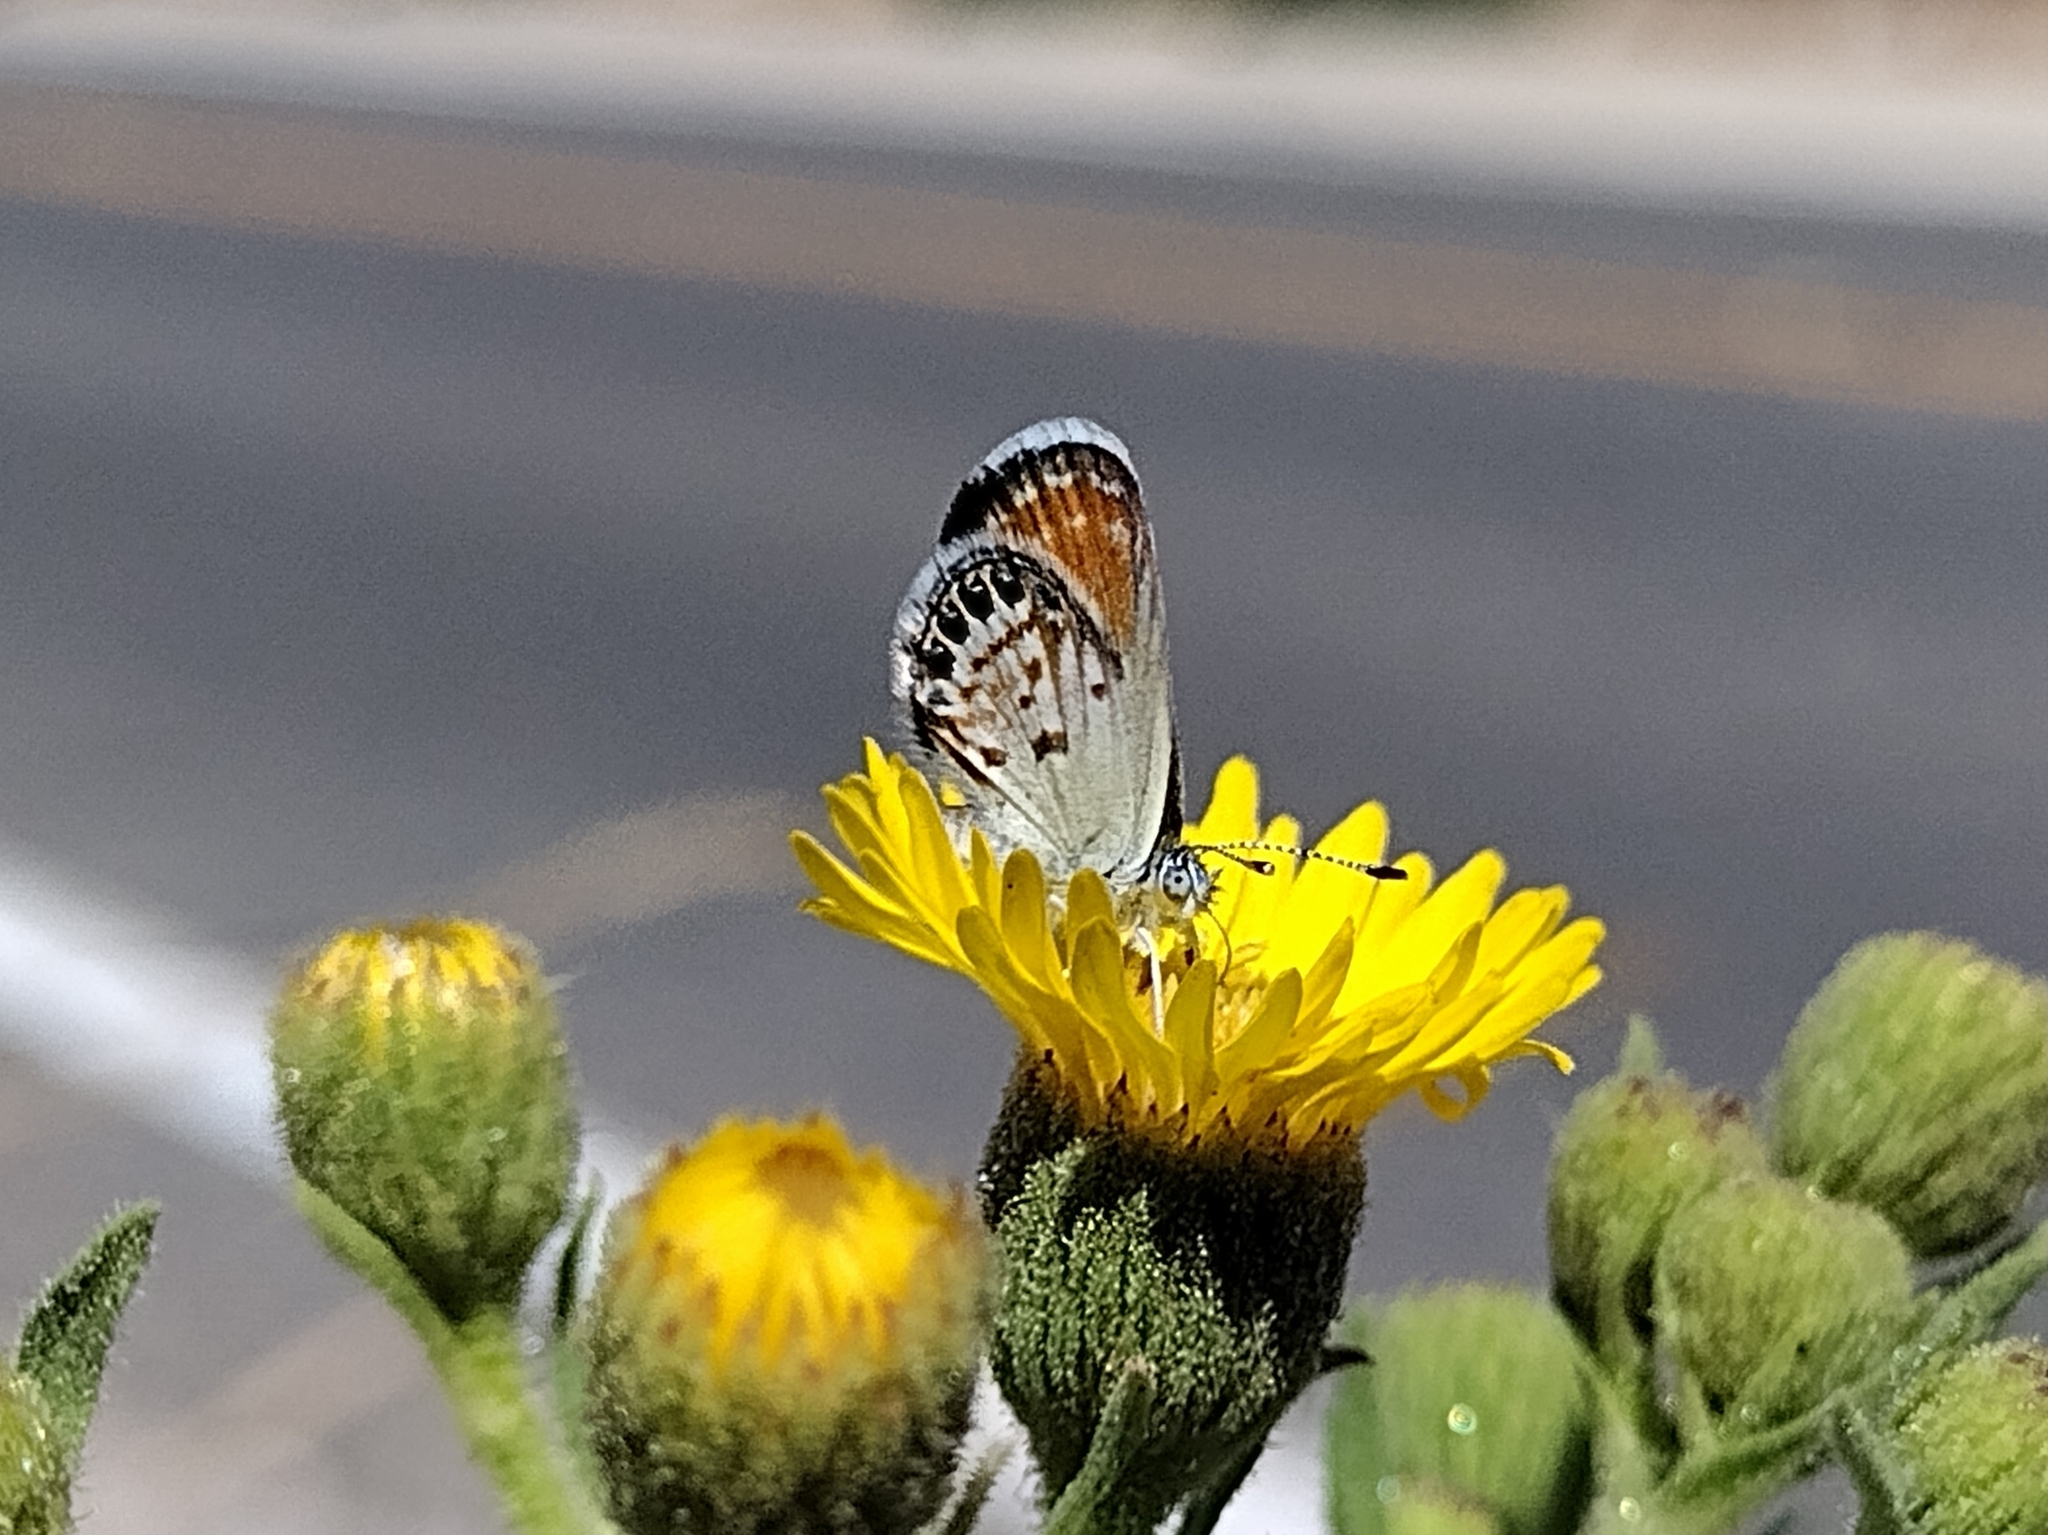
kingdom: Animalia
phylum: Arthropoda
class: Insecta
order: Lepidoptera
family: Lycaenidae
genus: Brephidium
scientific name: Brephidium exilis
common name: Pygmy blue
